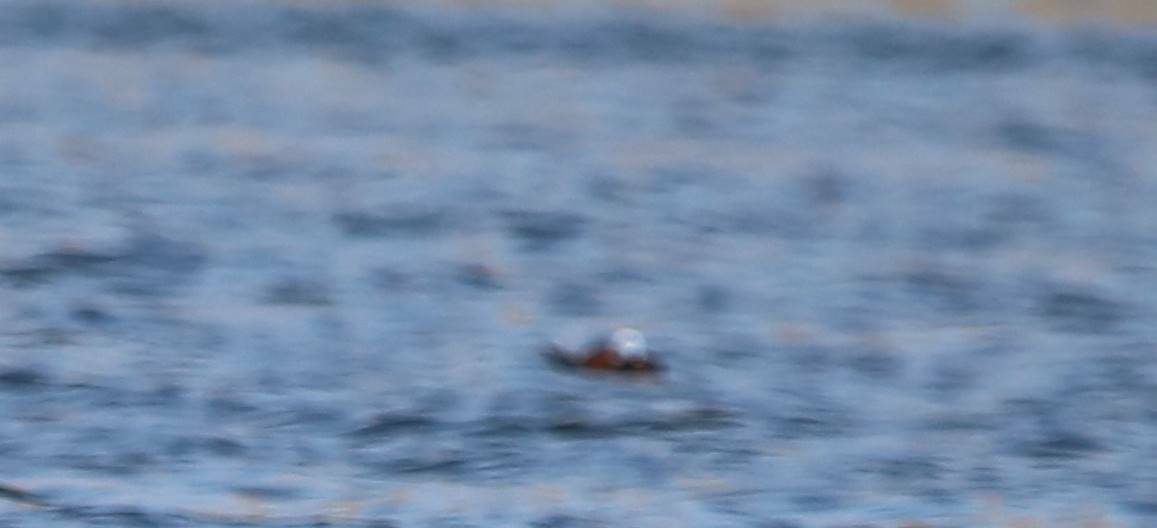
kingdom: Animalia
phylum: Chordata
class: Aves
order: Anseriformes
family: Anatidae
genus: Oxyura
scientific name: Oxyura leucocephala
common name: White-headed duck
